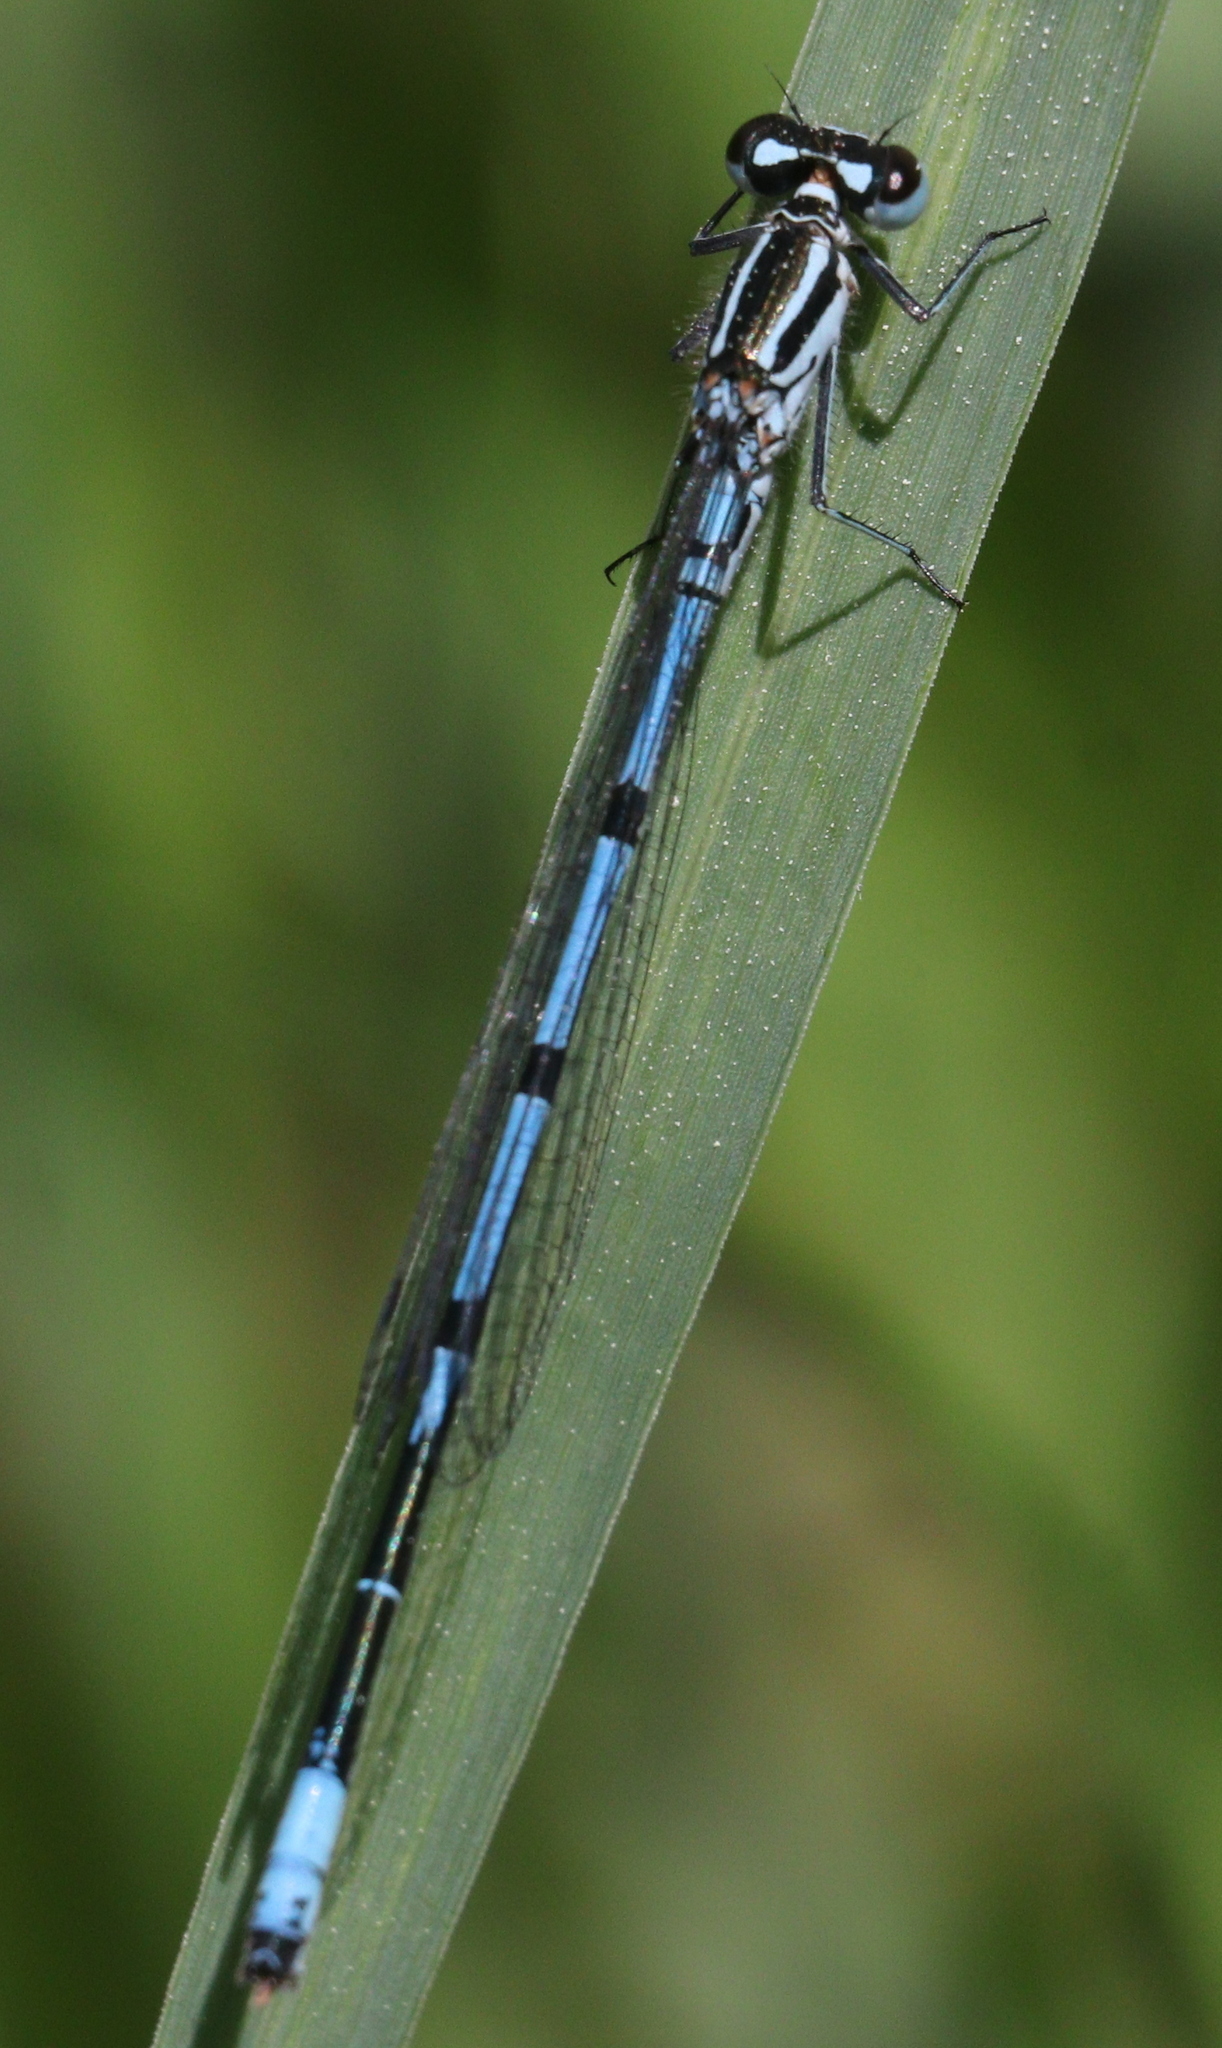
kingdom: Animalia
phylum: Arthropoda
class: Insecta
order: Odonata
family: Coenagrionidae
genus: Coenagrion
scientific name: Coenagrion puella
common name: Azure damselfly
